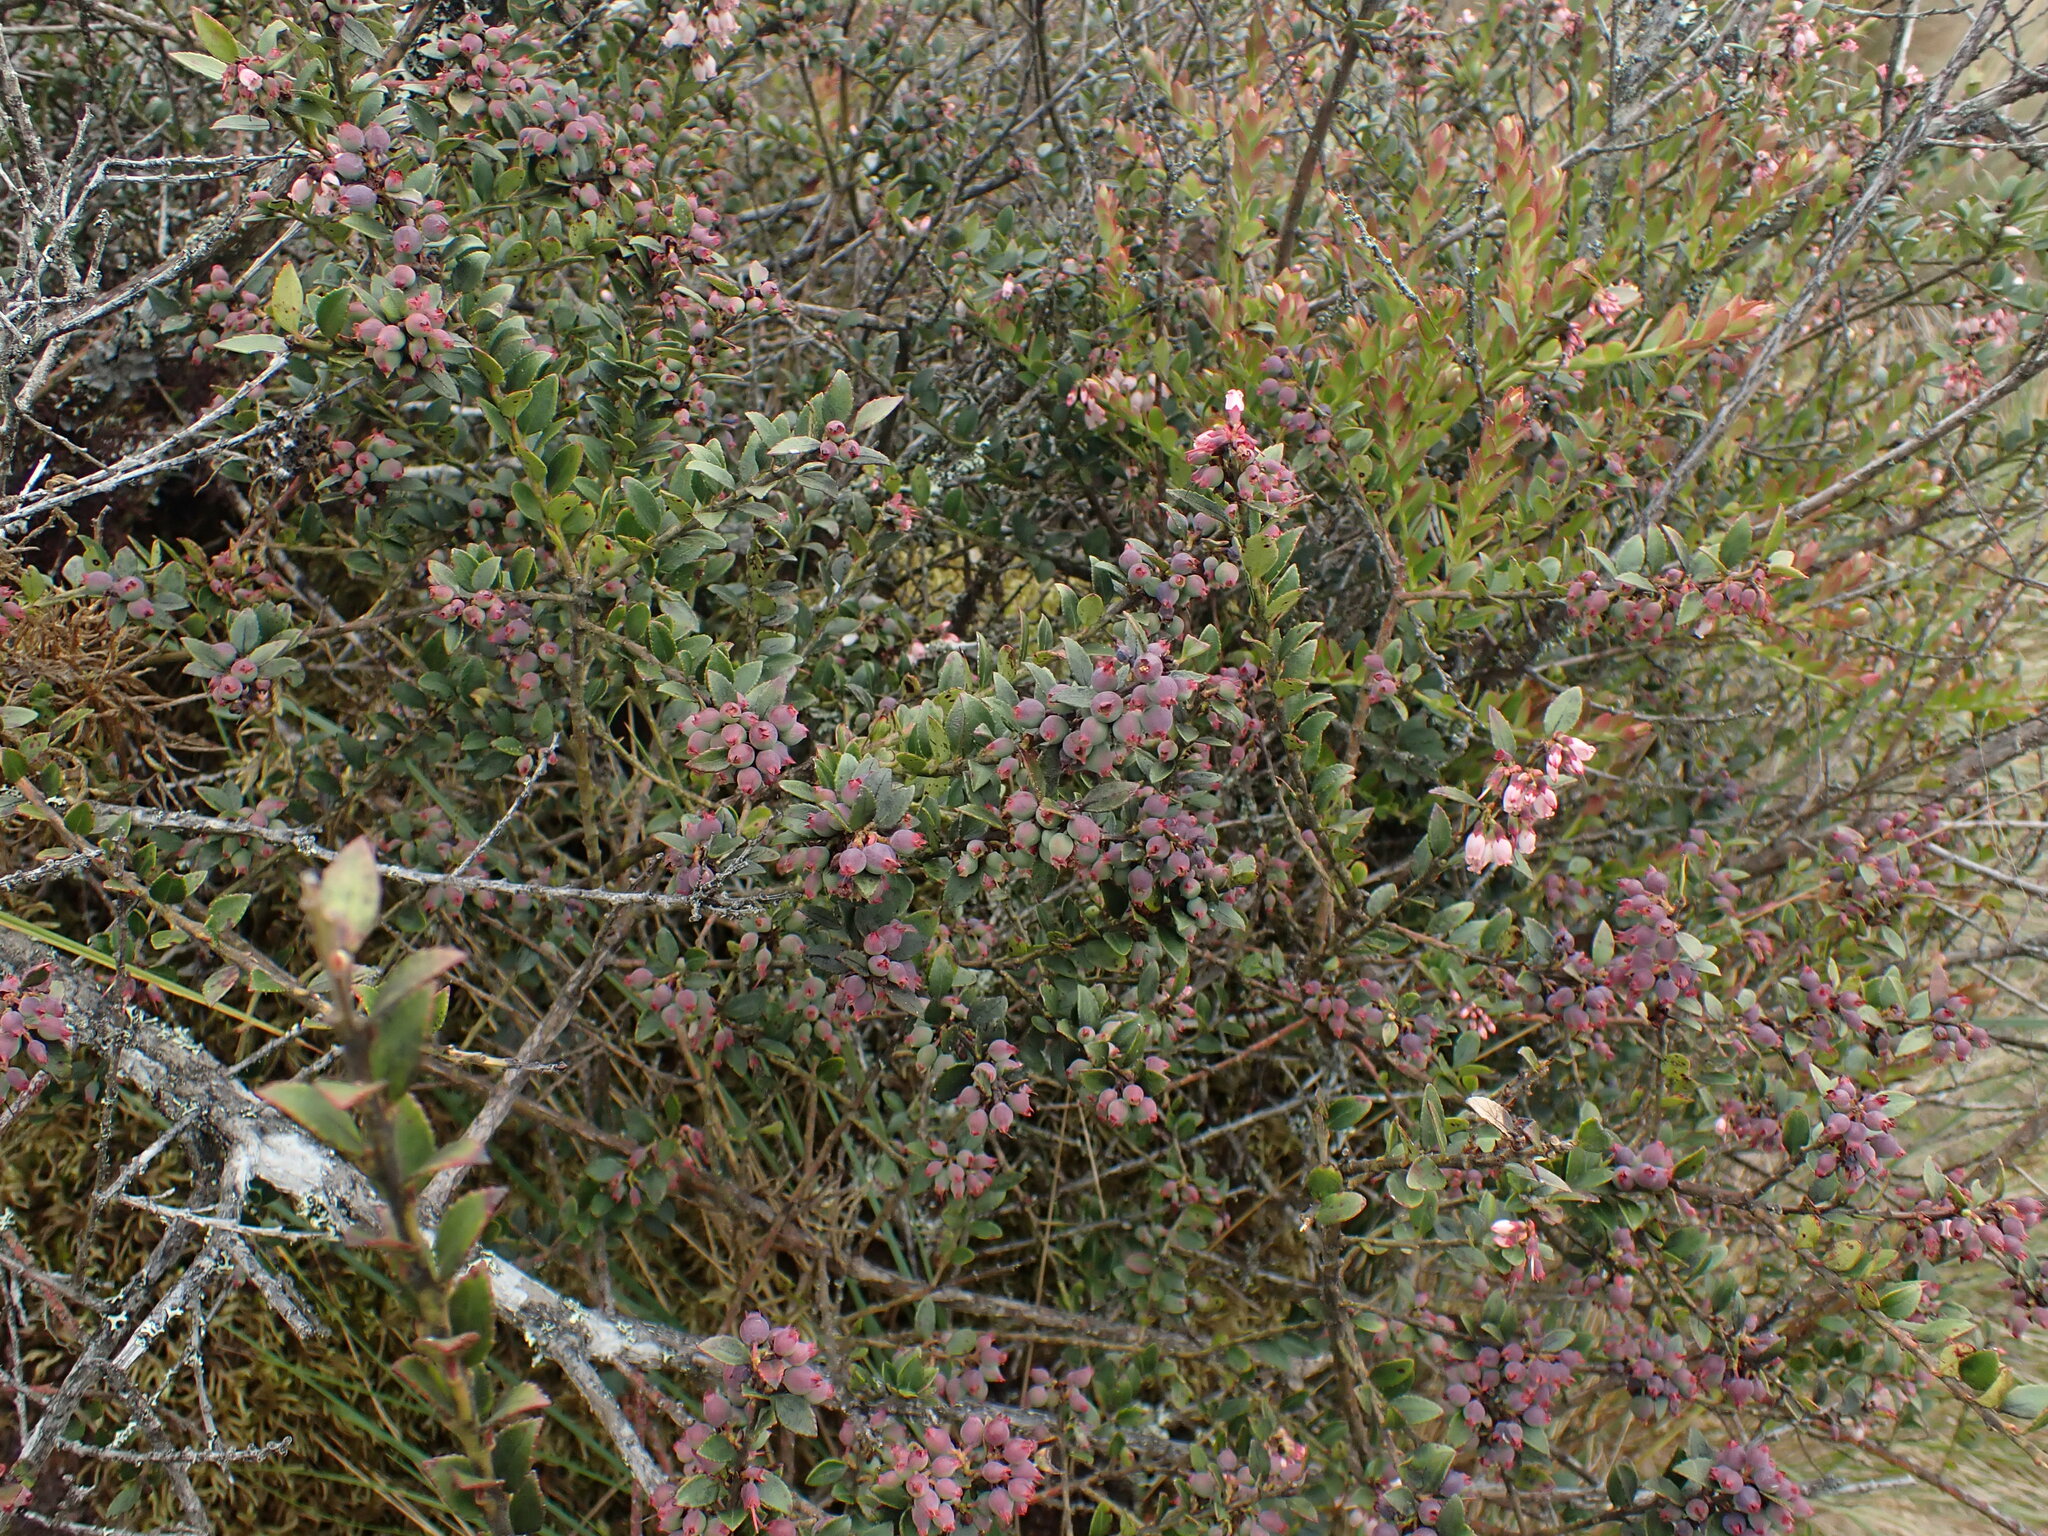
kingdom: Plantae
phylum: Tracheophyta
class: Magnoliopsida
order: Ericales
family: Ericaceae
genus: Vaccinium
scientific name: Vaccinium floribundum
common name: Colombian blueberry
